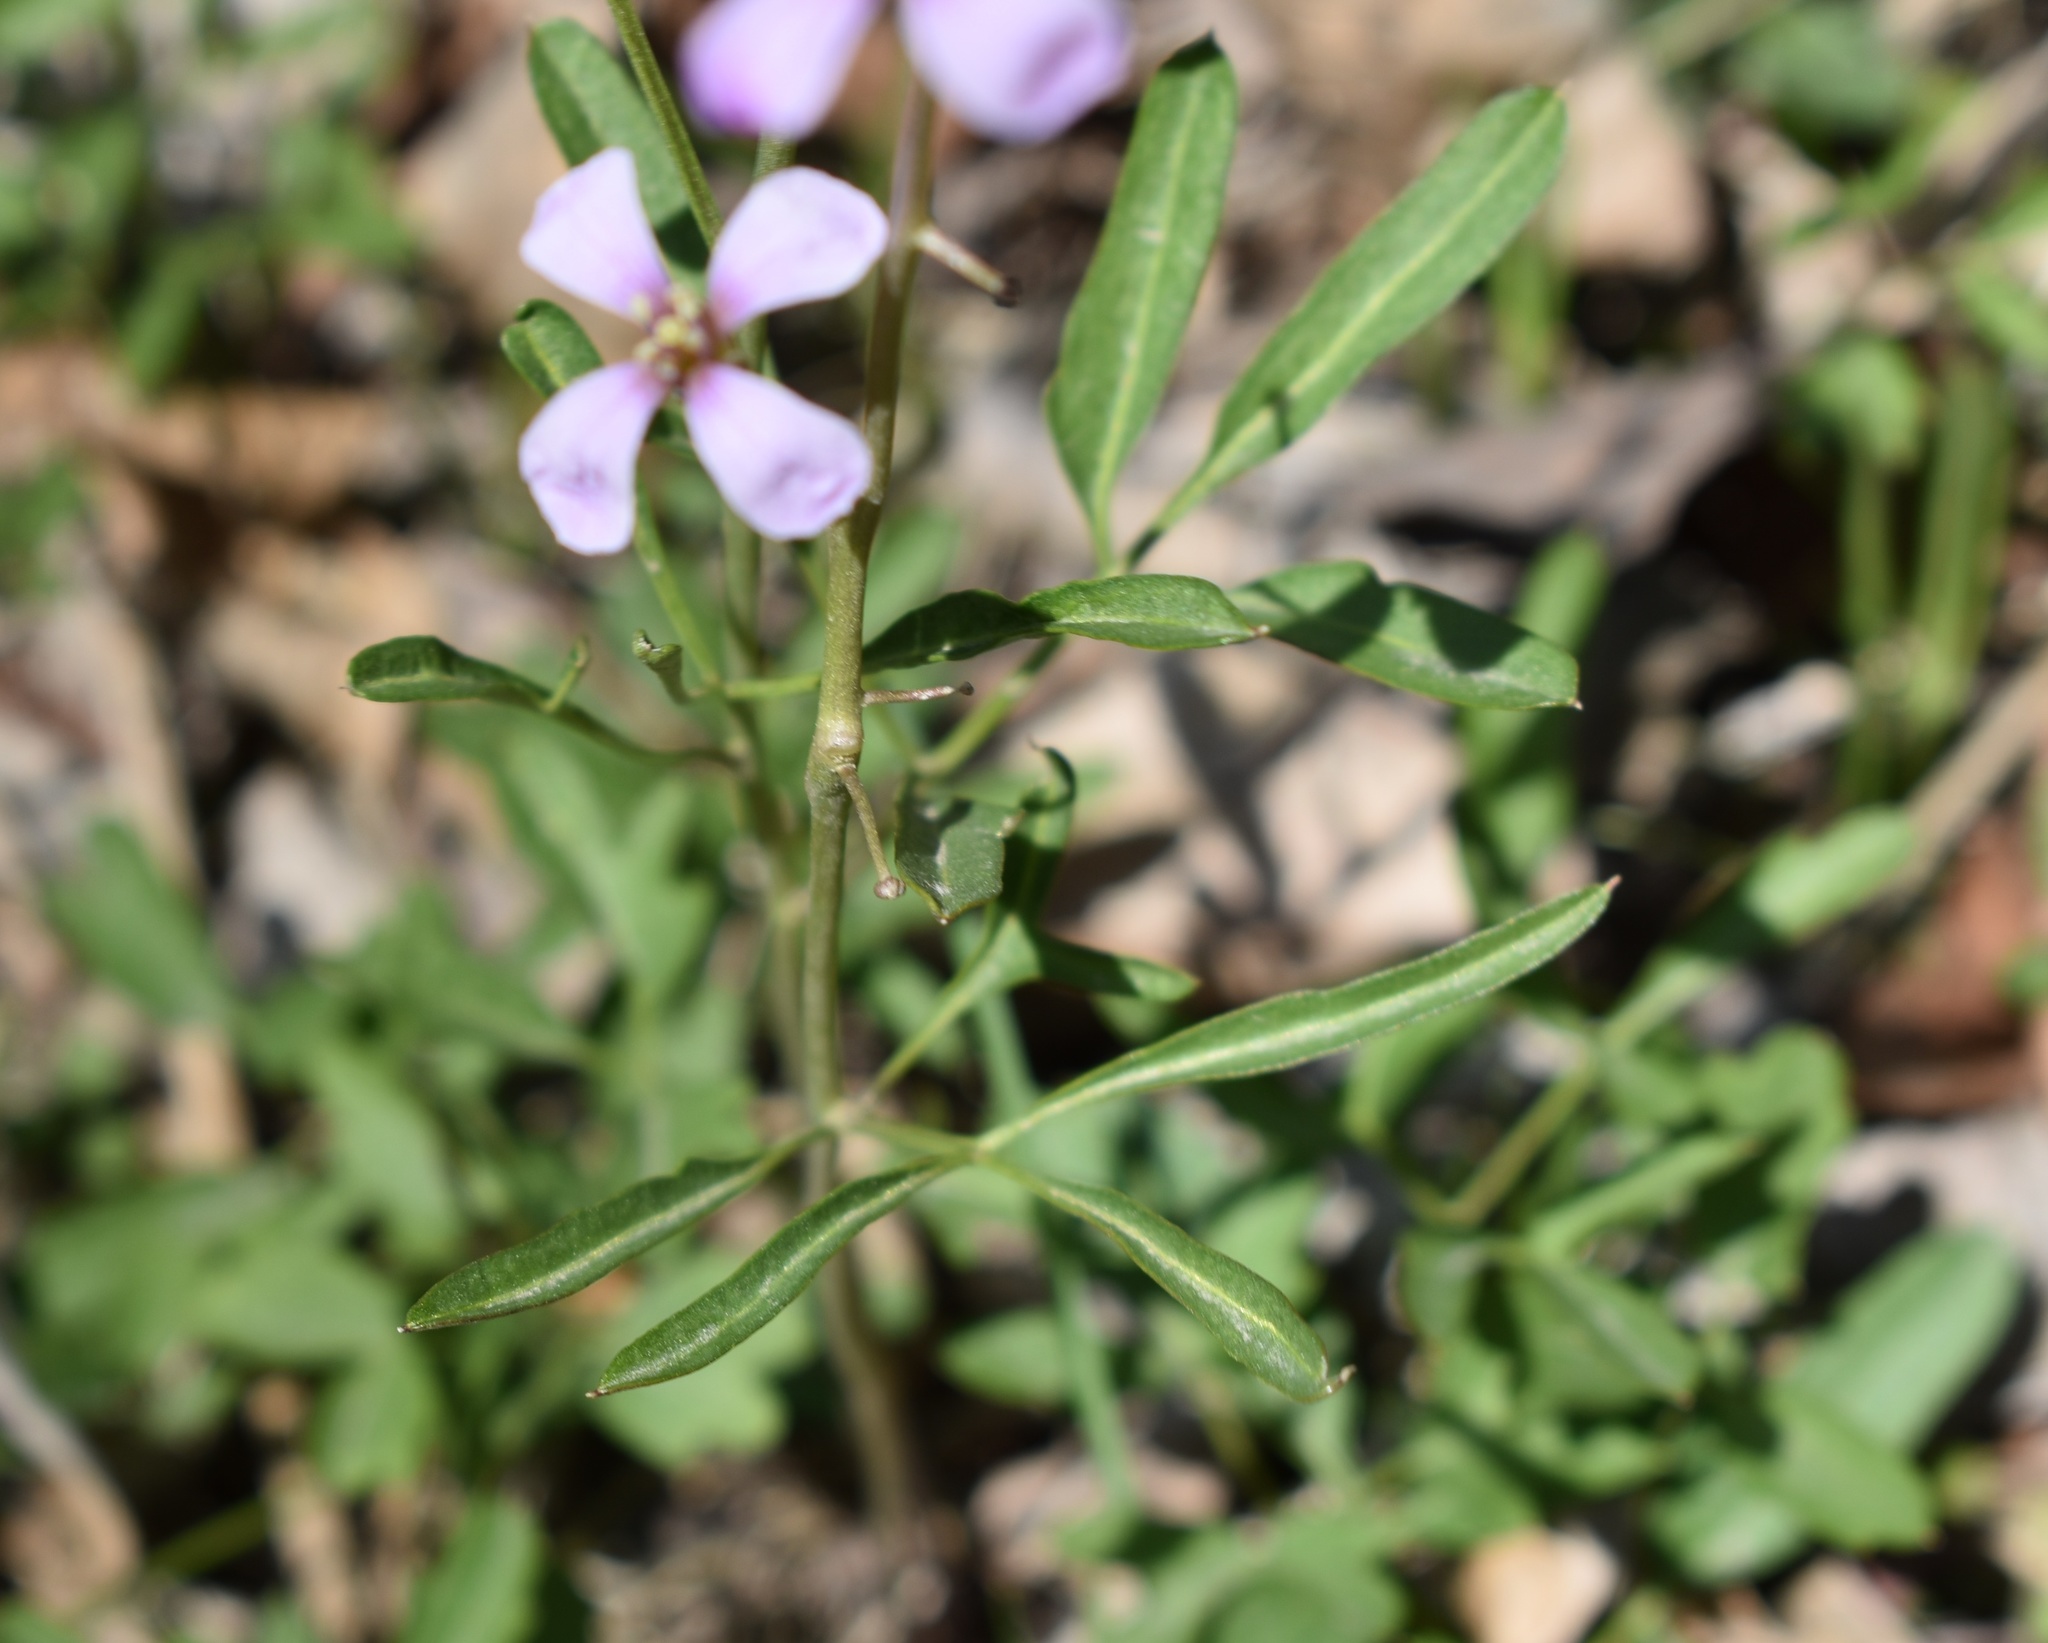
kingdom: Plantae
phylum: Tracheophyta
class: Magnoliopsida
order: Brassicales
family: Brassicaceae
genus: Cardamine
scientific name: Cardamine trifida
